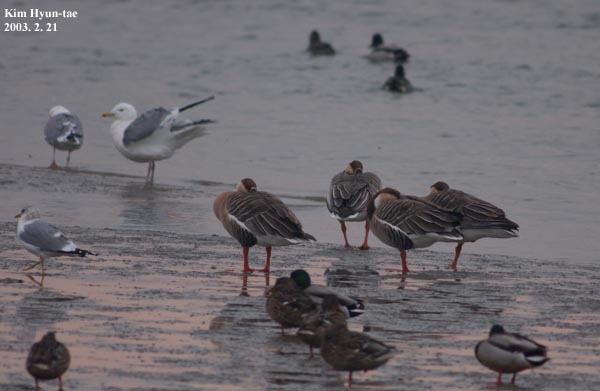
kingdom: Animalia
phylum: Chordata
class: Aves
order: Anseriformes
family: Anatidae
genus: Anser
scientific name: Anser cygnoides
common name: Swan goose
